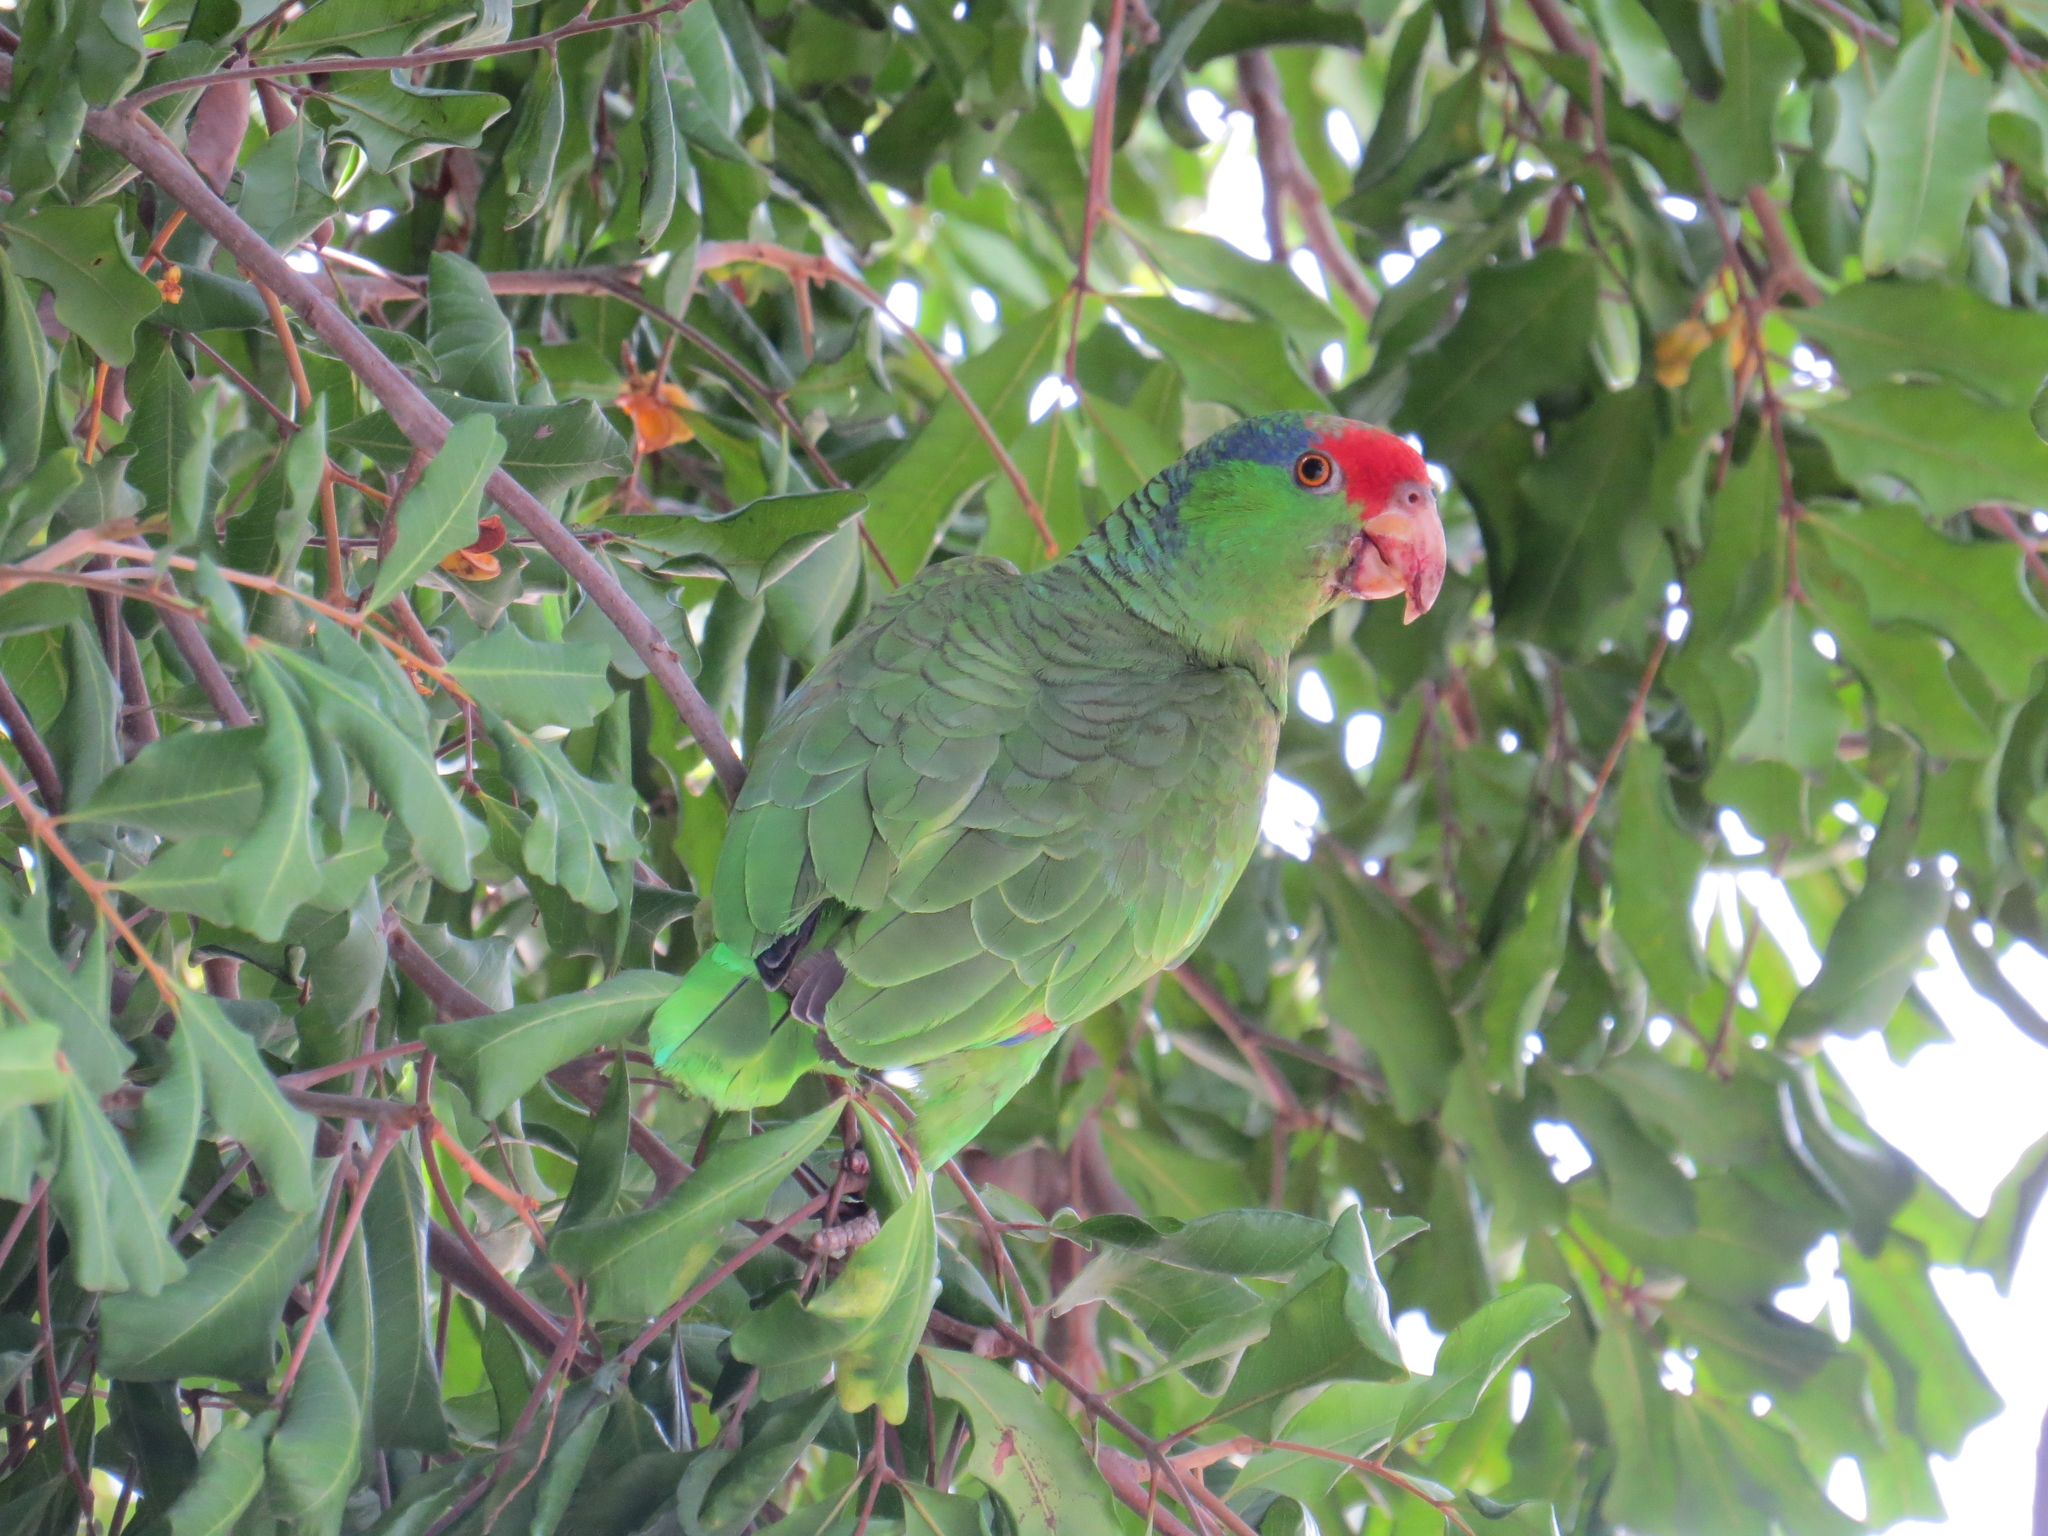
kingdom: Animalia
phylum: Chordata
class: Aves
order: Psittaciformes
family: Psittacidae
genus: Amazona
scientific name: Amazona viridigenalis
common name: Red-crowned amazon
